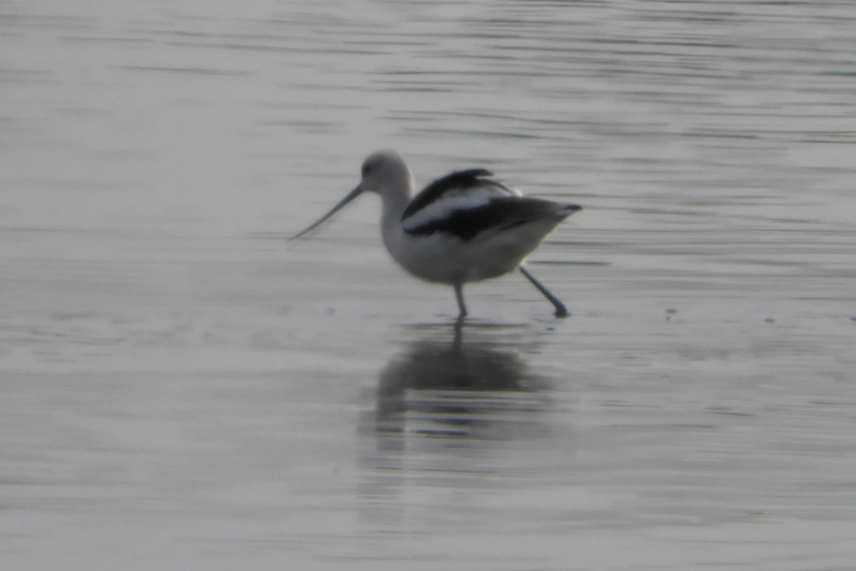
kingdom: Animalia
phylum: Chordata
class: Aves
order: Charadriiformes
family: Recurvirostridae
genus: Recurvirostra
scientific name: Recurvirostra americana
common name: American avocet
